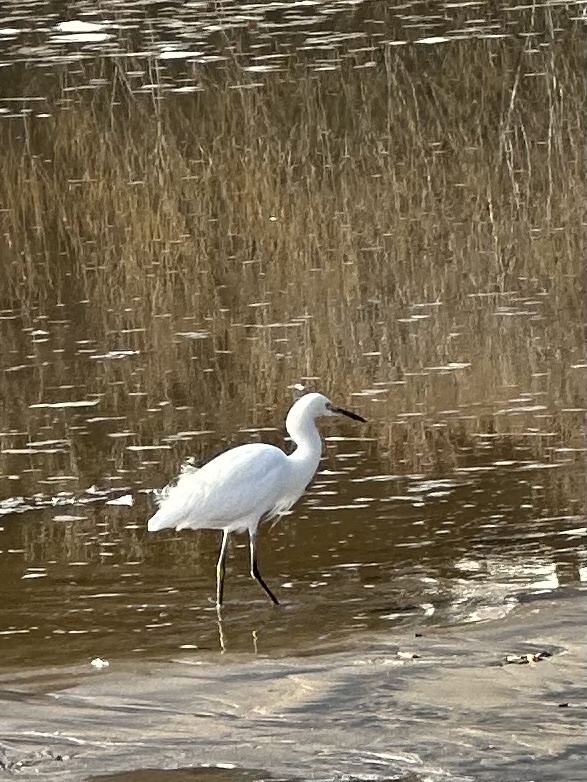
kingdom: Animalia
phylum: Chordata
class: Aves
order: Pelecaniformes
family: Ardeidae
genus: Egretta
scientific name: Egretta thula
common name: Snowy egret
